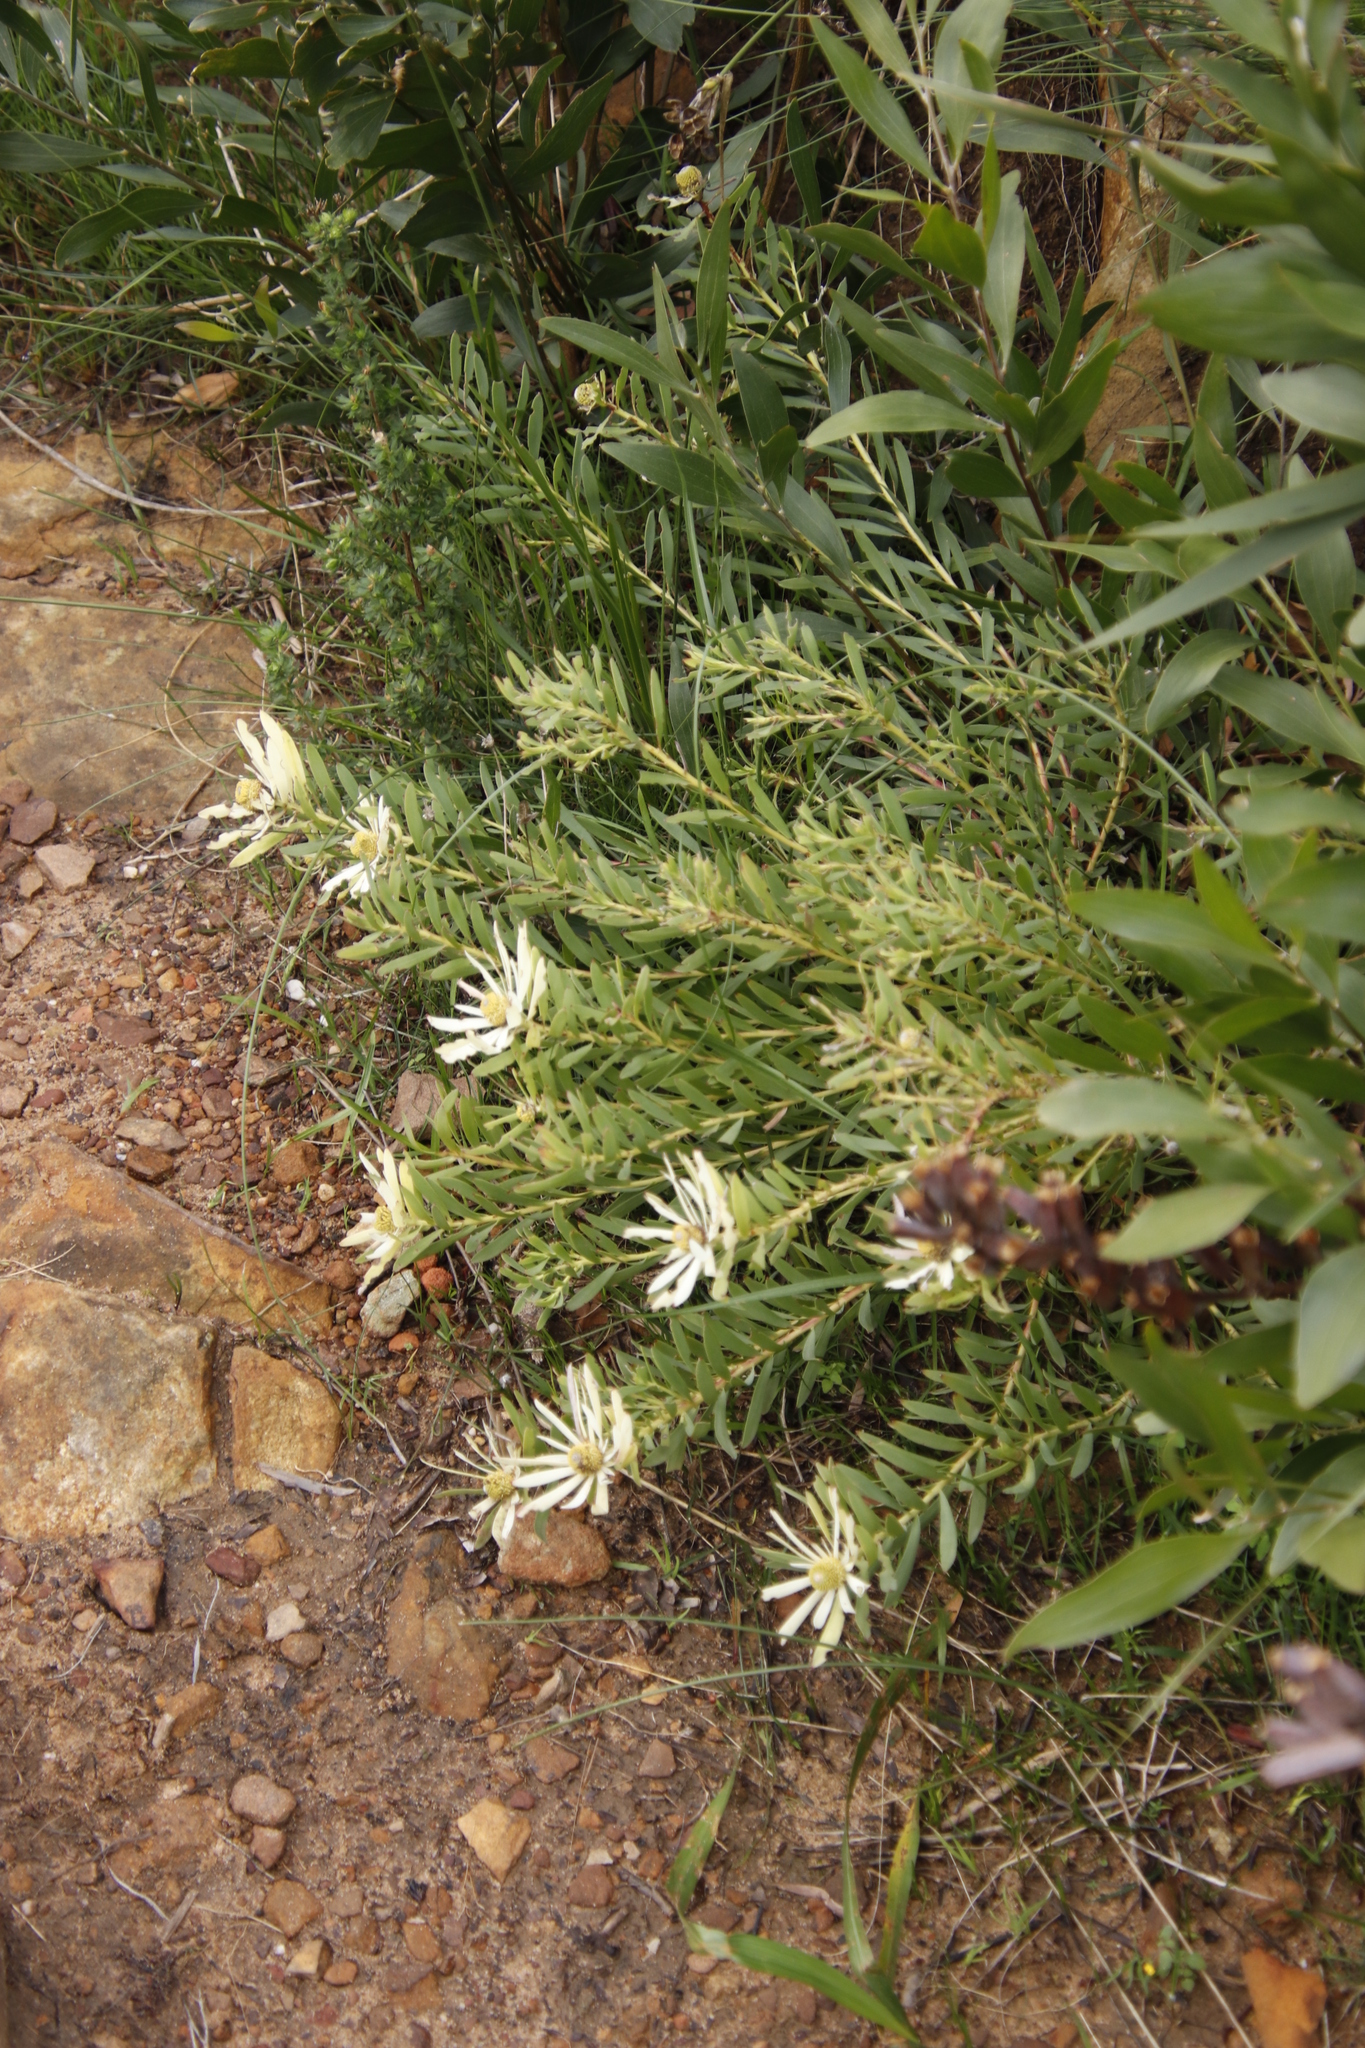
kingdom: Plantae
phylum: Tracheophyta
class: Magnoliopsida
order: Proteales
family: Proteaceae
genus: Leucadendron
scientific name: Leucadendron salignum
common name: Common sunshine conebush
